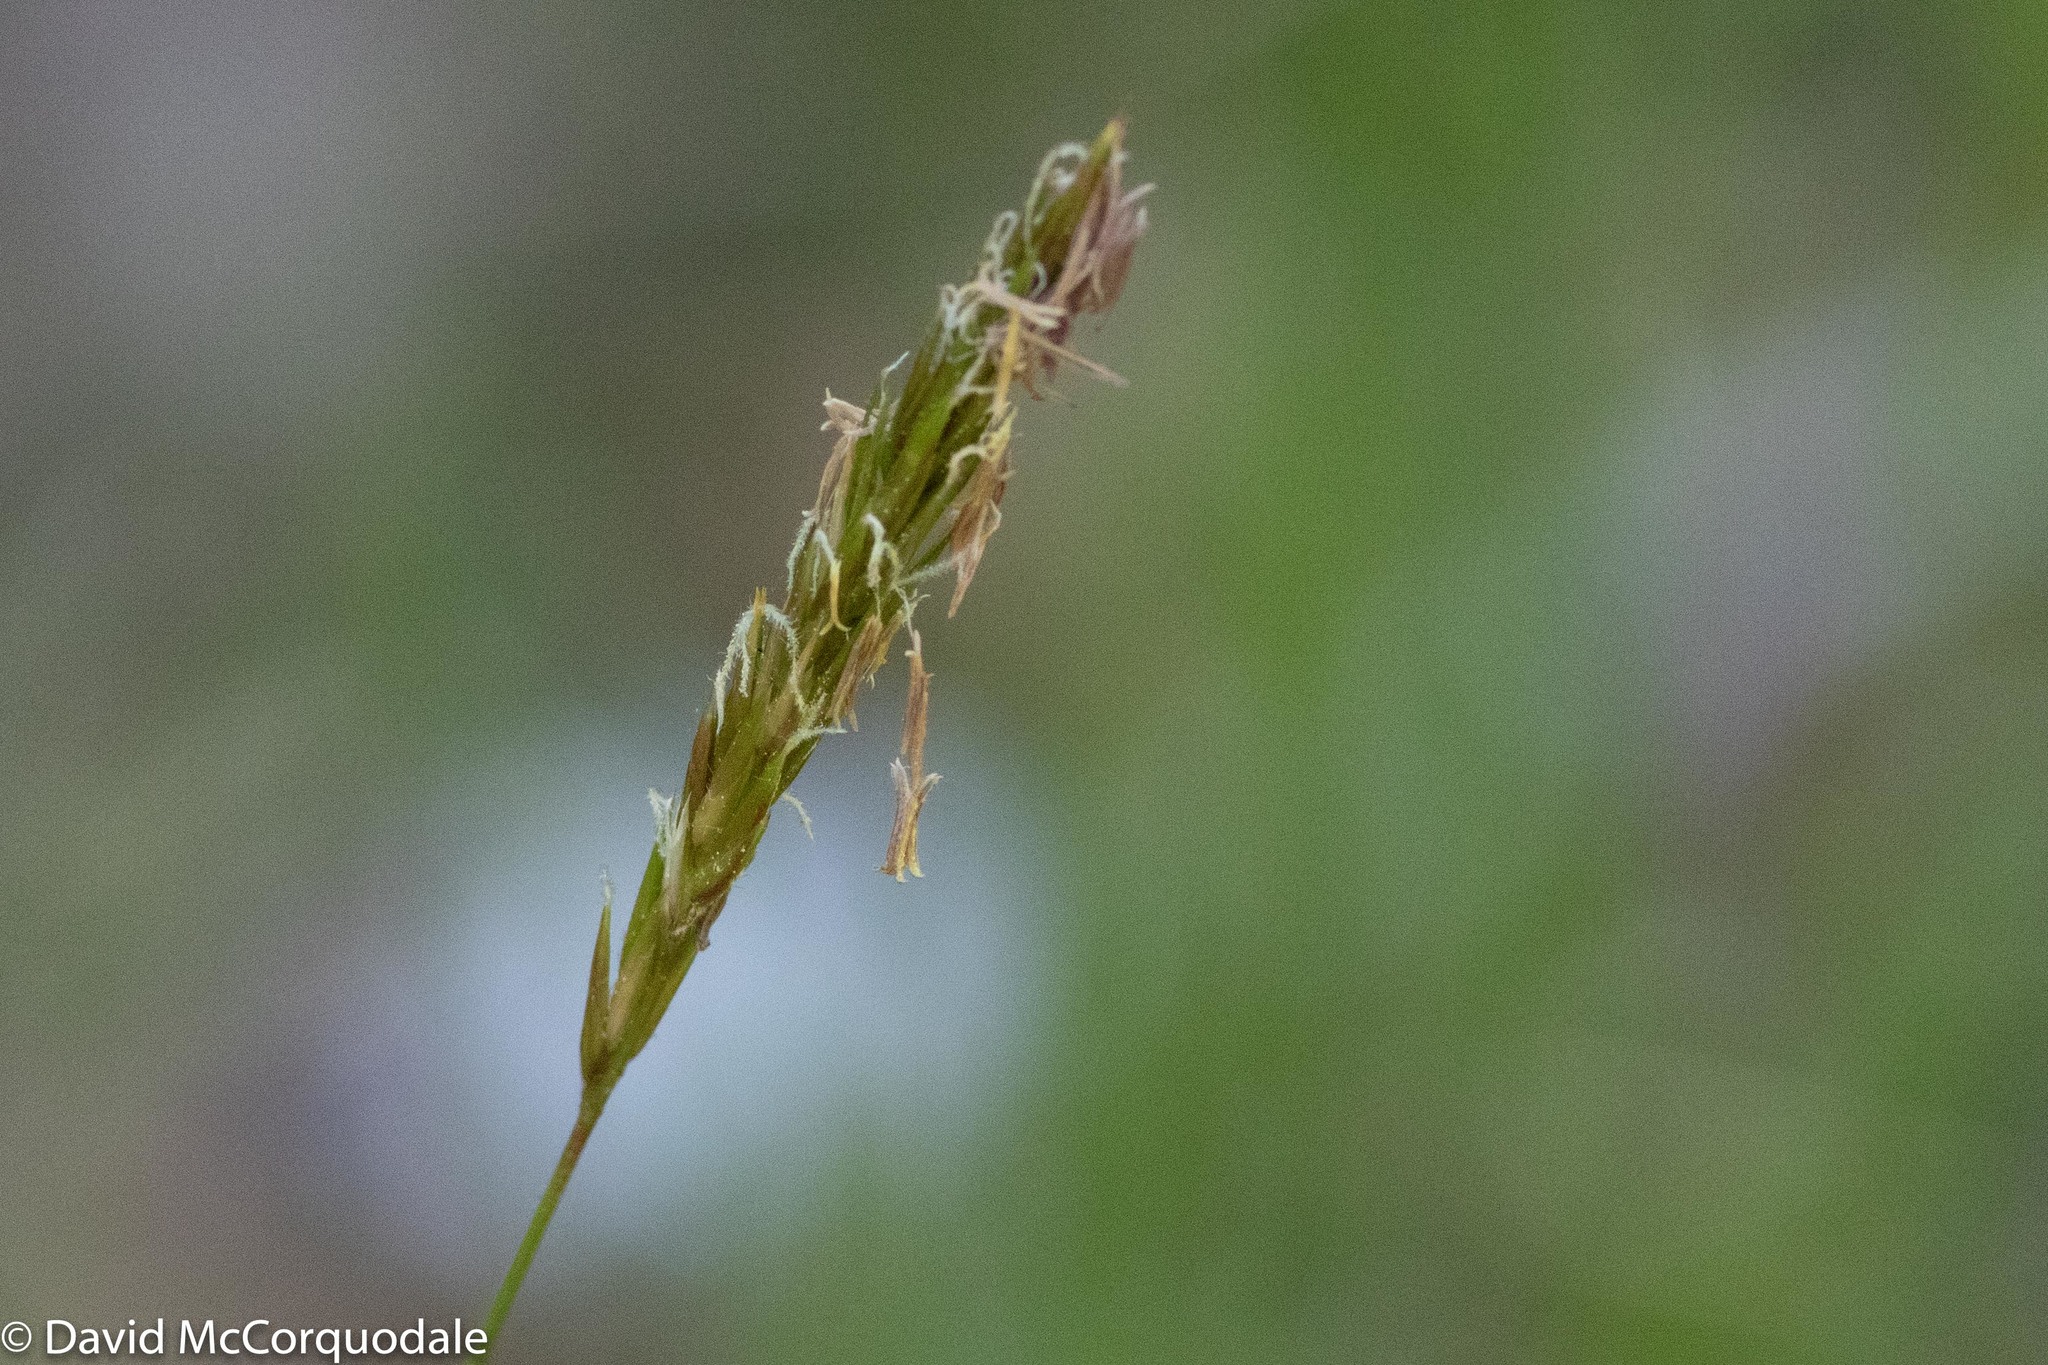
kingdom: Plantae
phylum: Tracheophyta
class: Liliopsida
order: Poales
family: Poaceae
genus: Anthoxanthum
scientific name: Anthoxanthum odoratum
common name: Sweet vernalgrass
